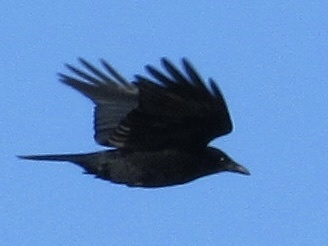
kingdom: Animalia
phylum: Chordata
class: Aves
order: Passeriformes
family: Corvidae
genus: Corvus
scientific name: Corvus brachyrhynchos
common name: American crow
